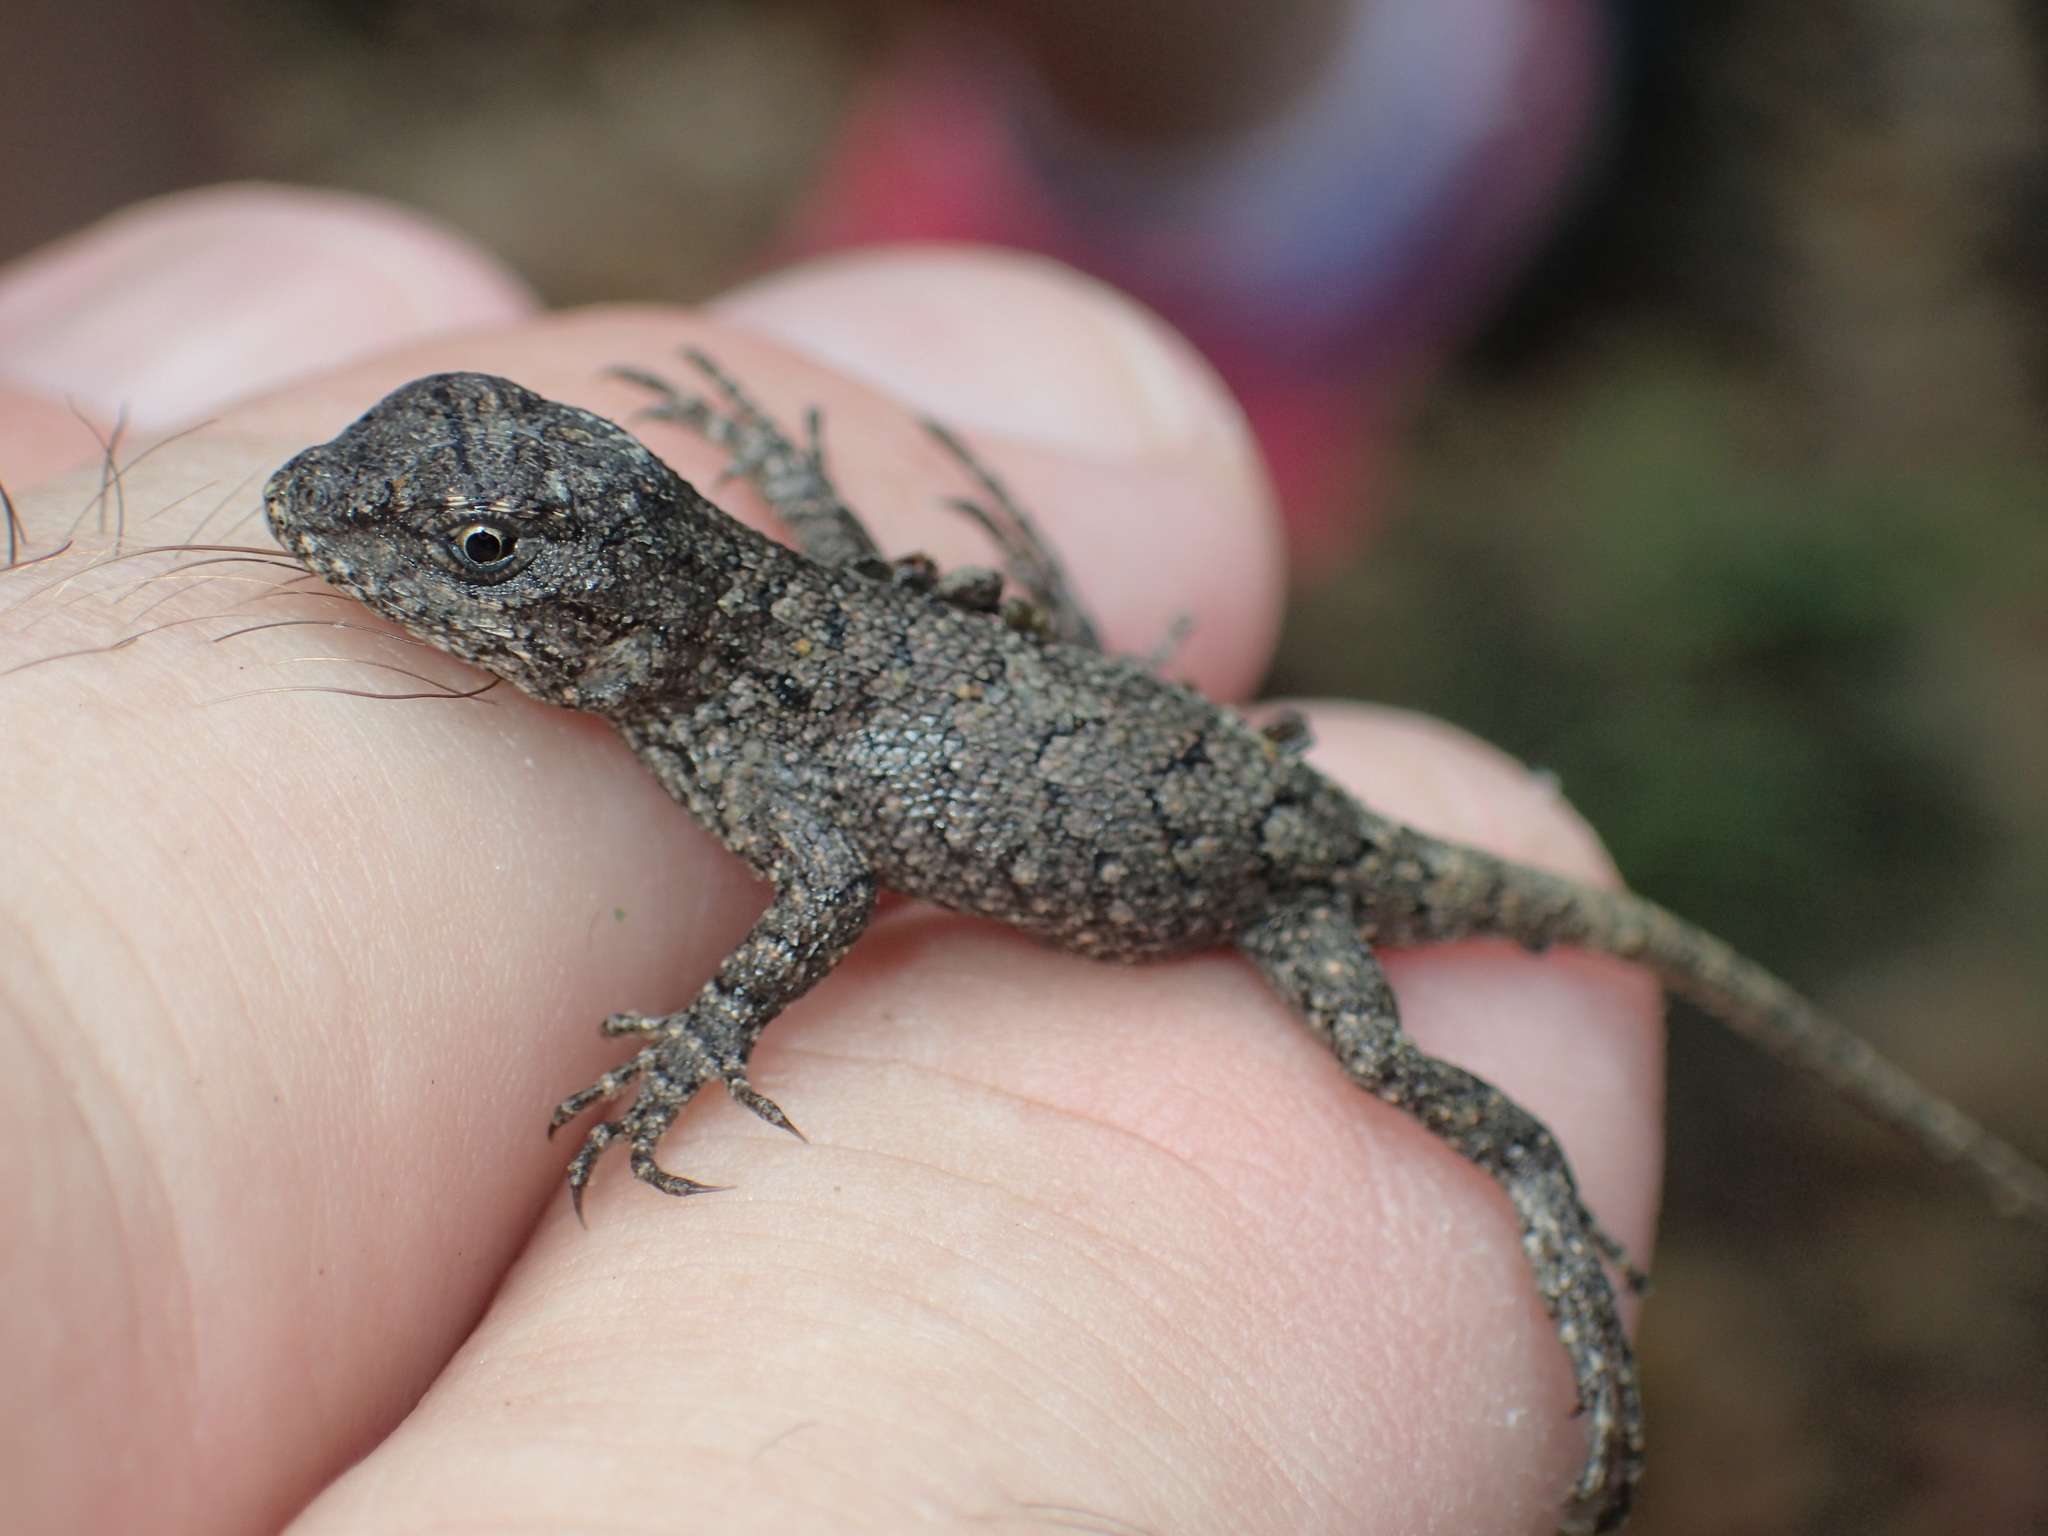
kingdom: Animalia
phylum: Chordata
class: Squamata
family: Phrynosomatidae
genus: Sceloporus
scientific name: Sceloporus undulatus
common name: Eastern fence lizard
